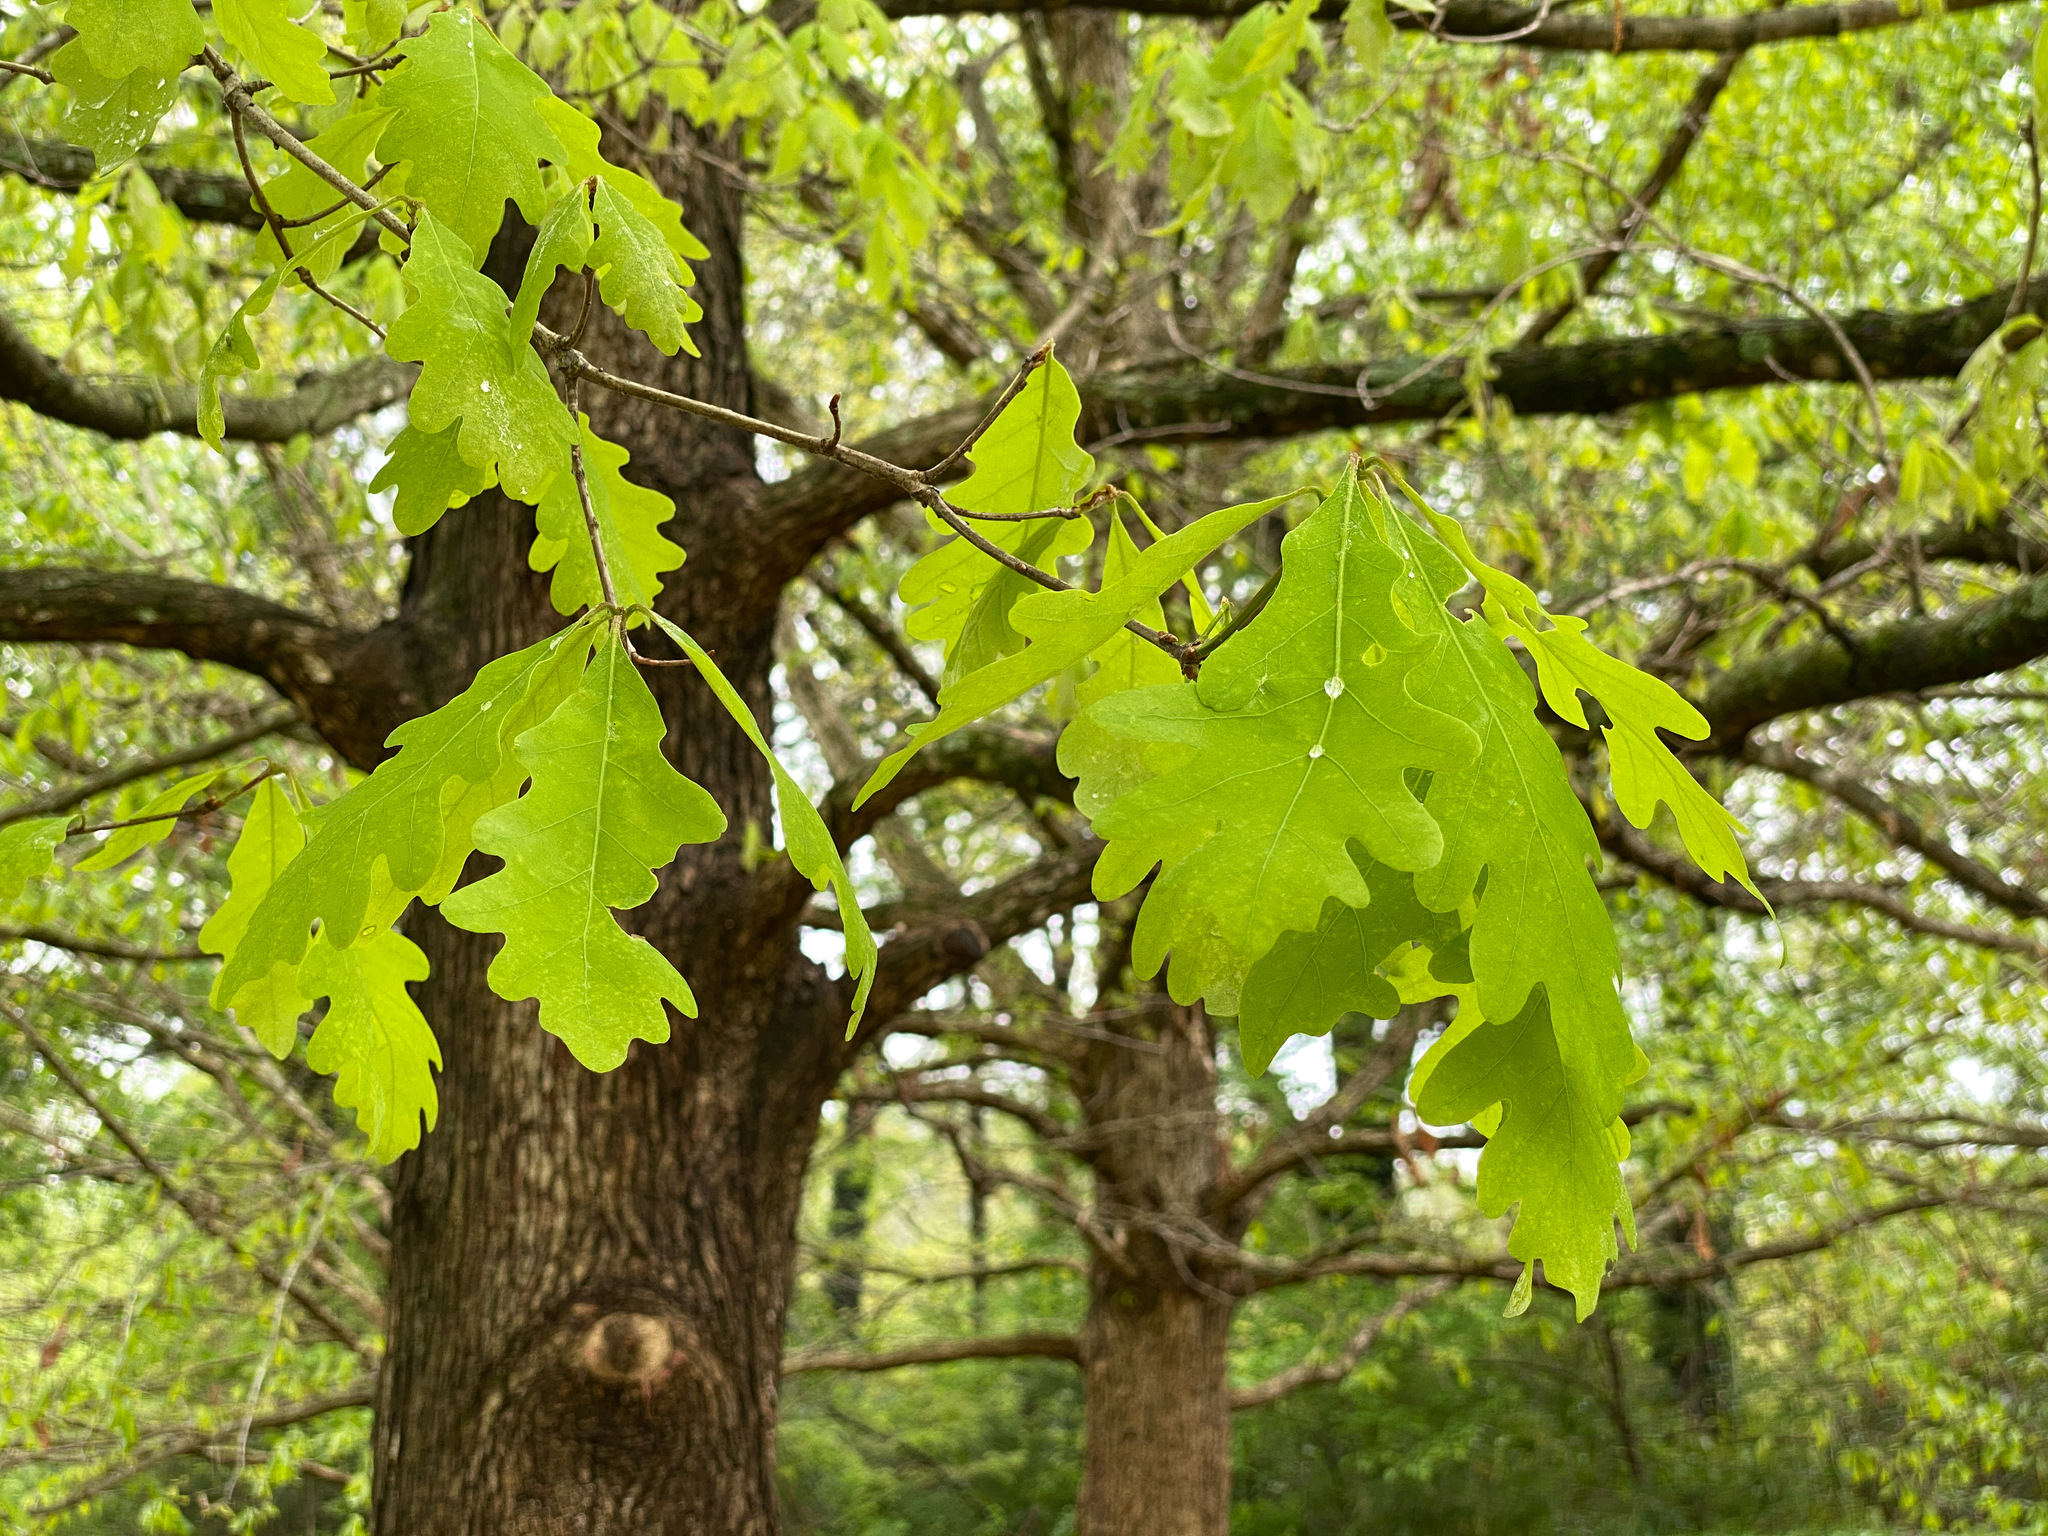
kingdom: Plantae
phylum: Tracheophyta
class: Magnoliopsida
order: Fagales
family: Fagaceae
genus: Quercus
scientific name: Quercus alba
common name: White oak
